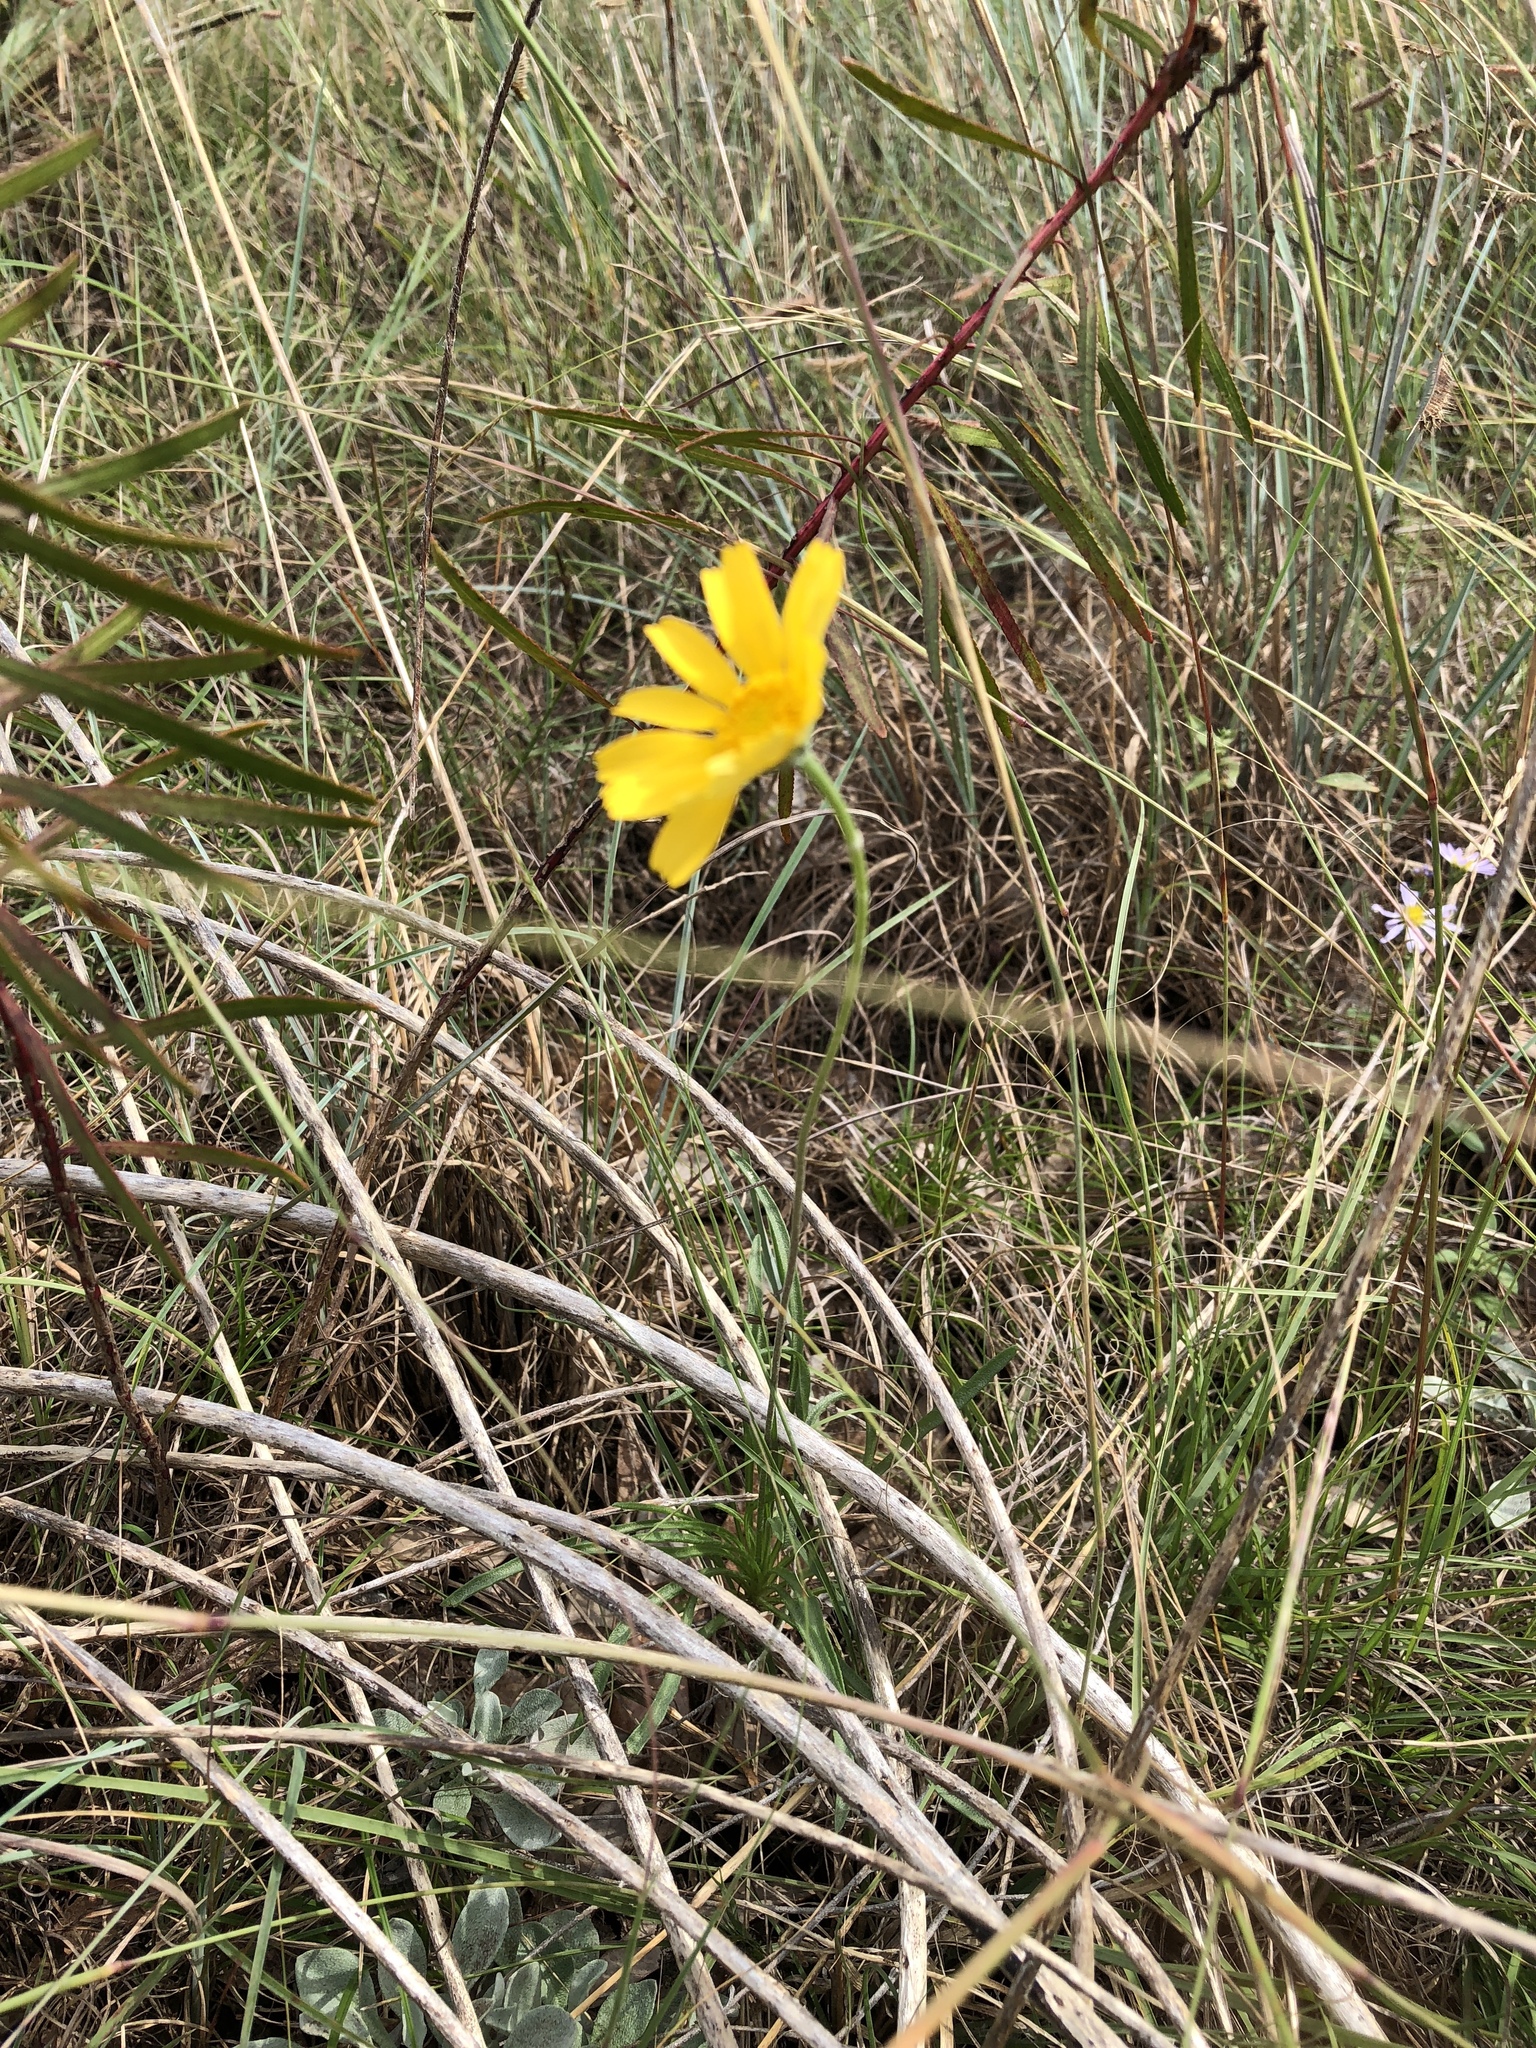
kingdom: Plantae
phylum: Tracheophyta
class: Magnoliopsida
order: Asterales
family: Asteraceae
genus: Tetraneuris
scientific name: Tetraneuris scaposa
